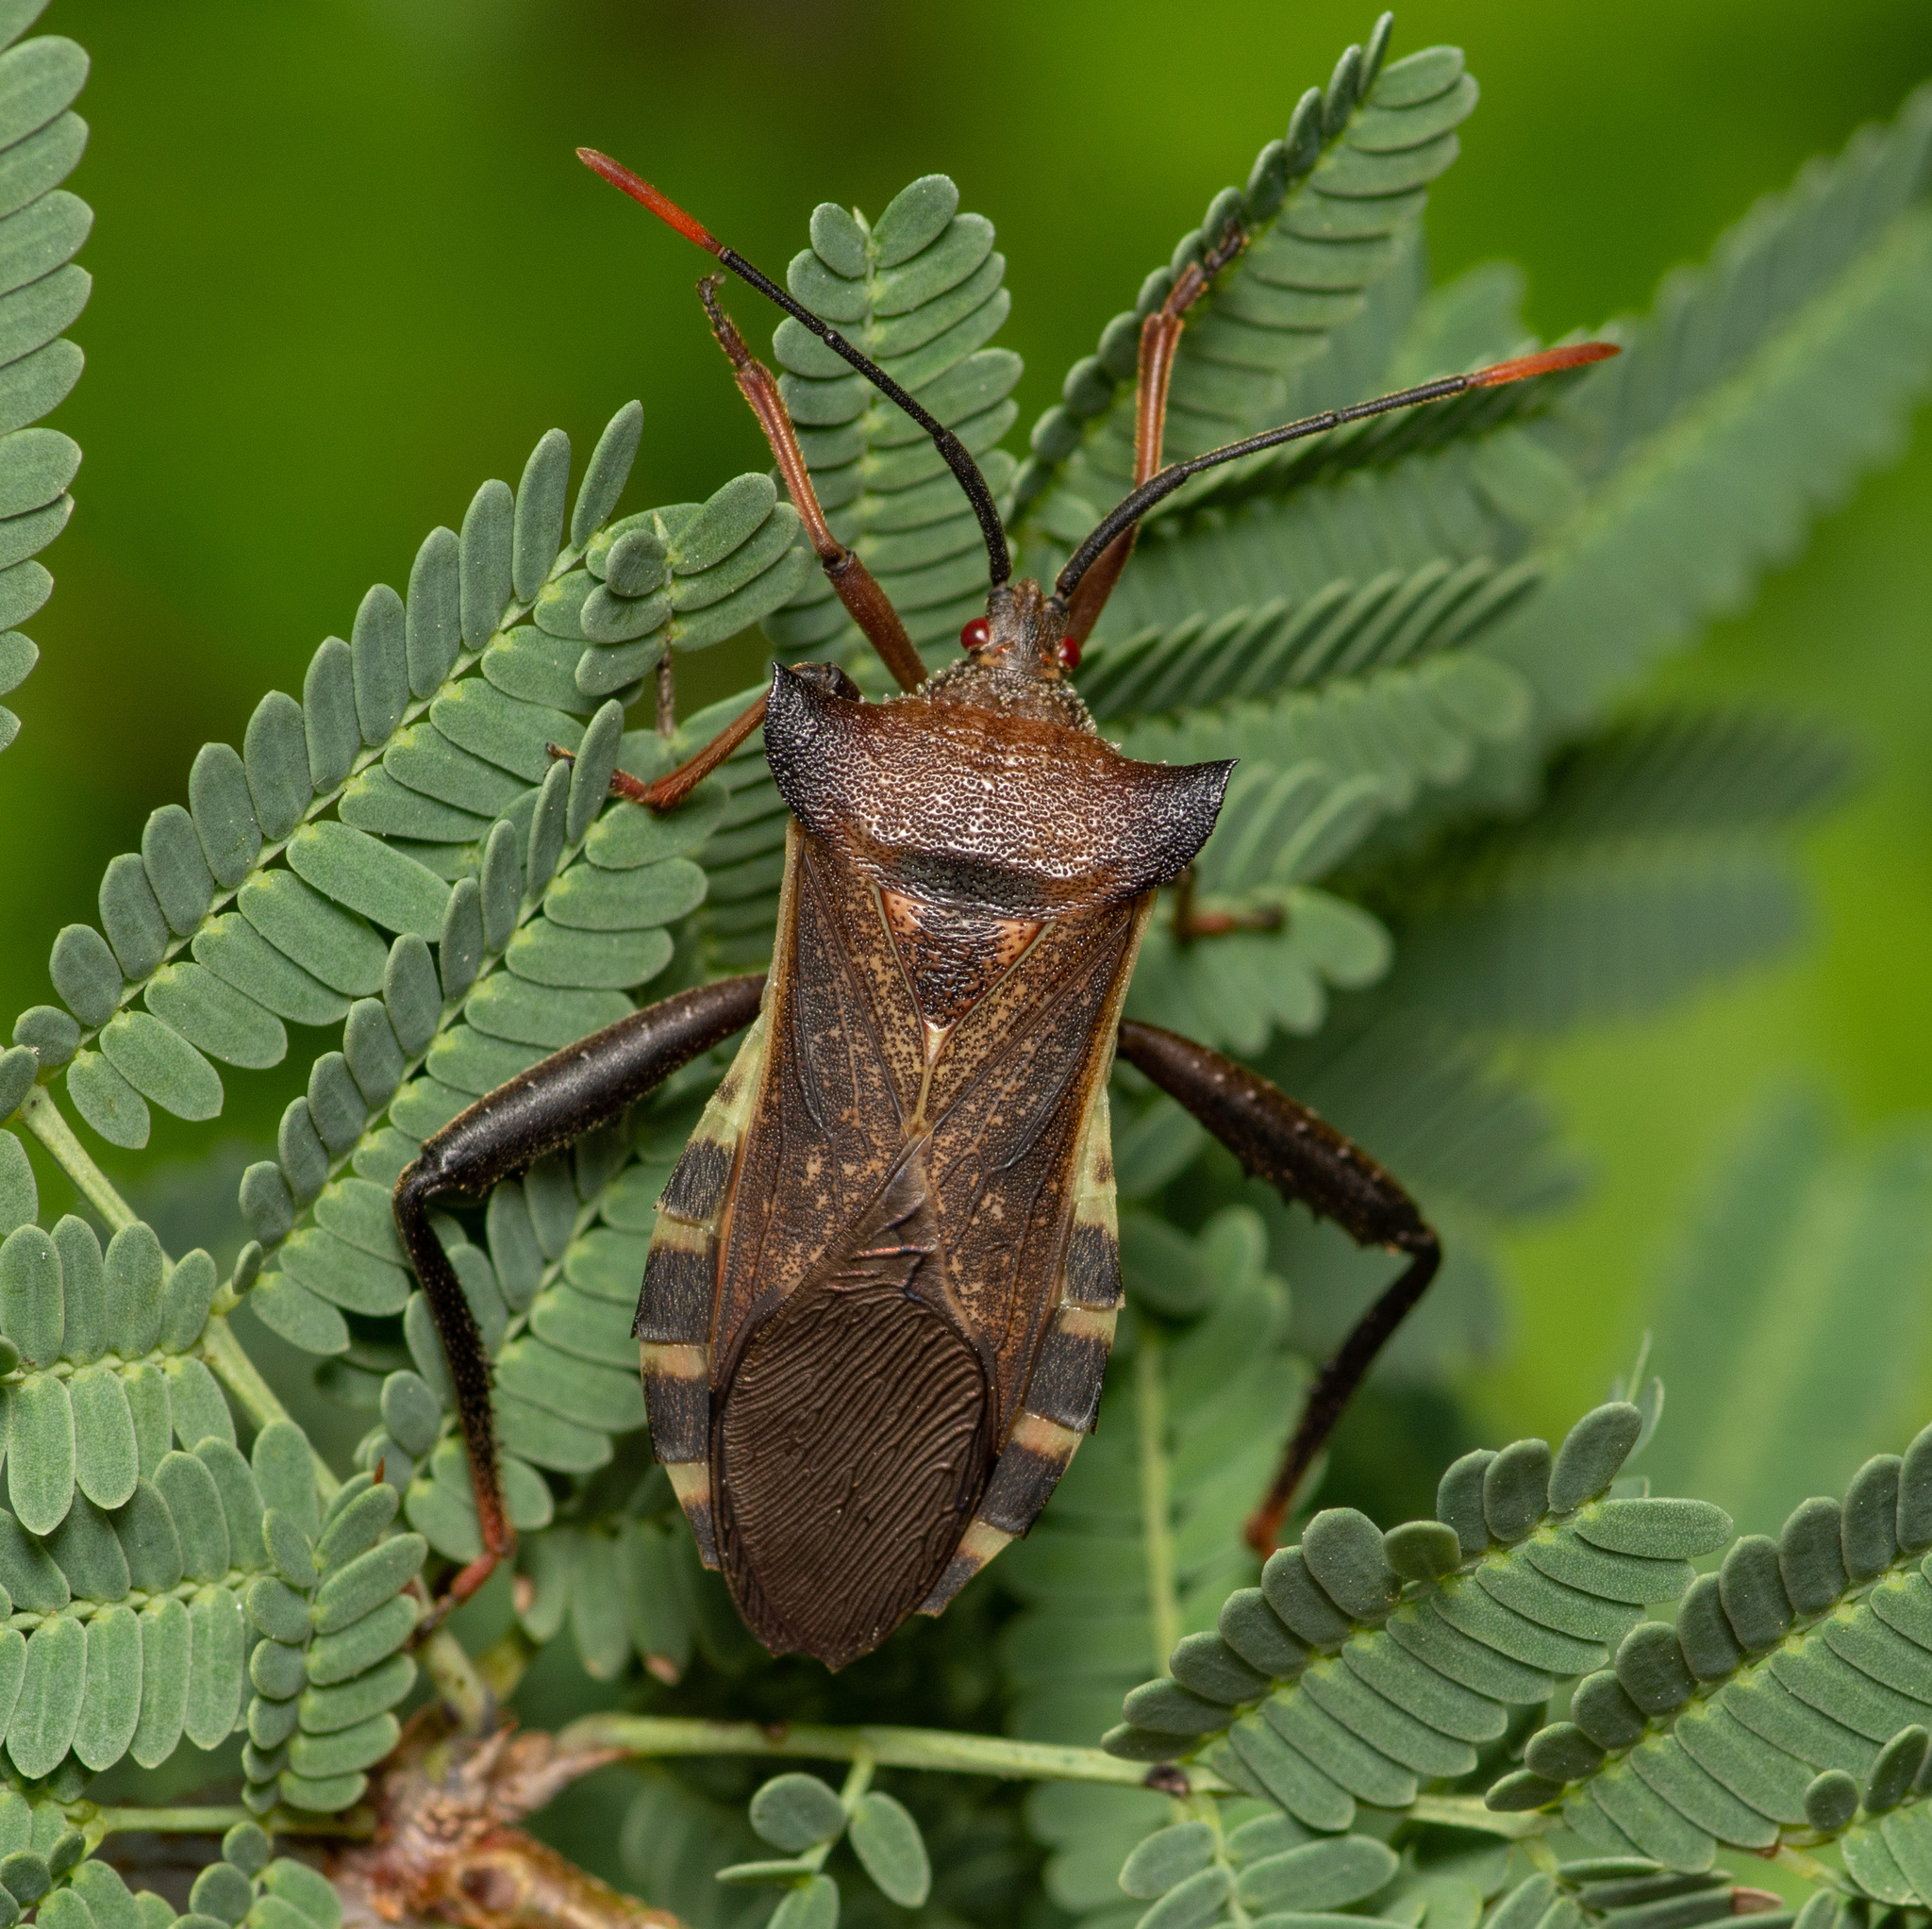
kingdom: Animalia
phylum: Arthropoda
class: Insecta
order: Hemiptera
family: Coreidae
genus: Mozena
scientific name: Mozena lunata
